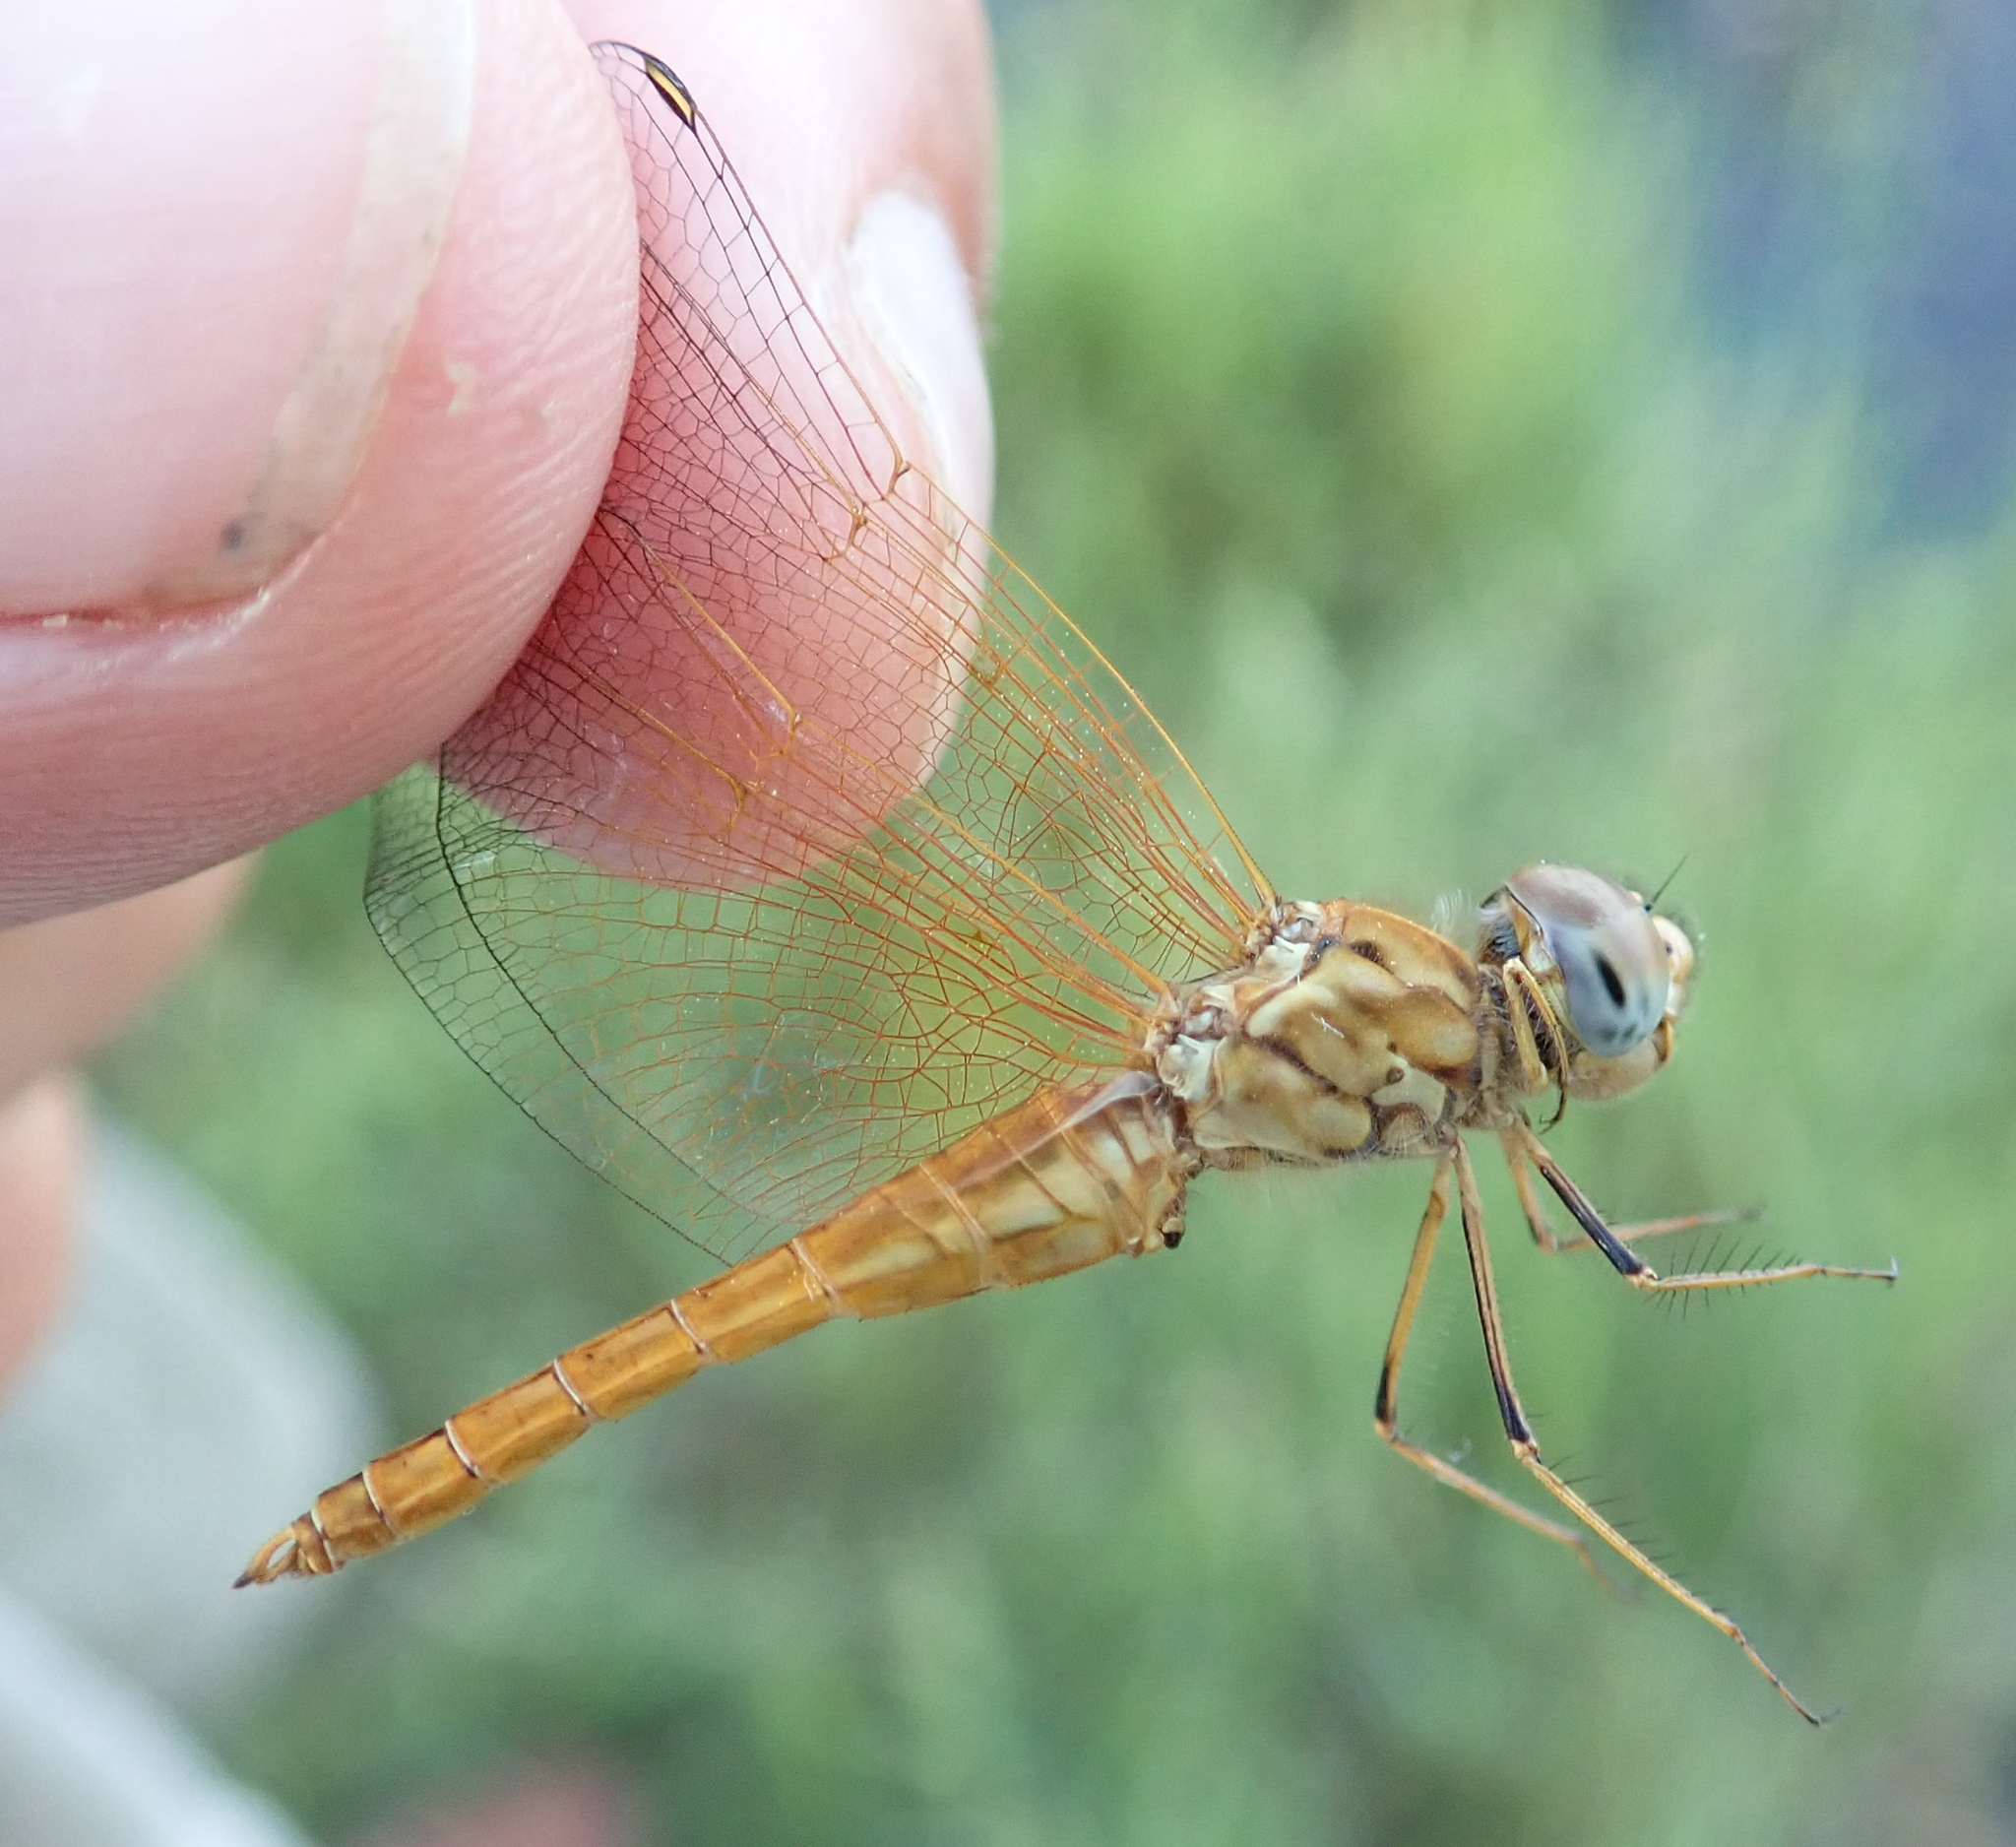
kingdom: Animalia
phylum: Arthropoda
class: Insecta
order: Odonata
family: Libellulidae
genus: Brachythemis
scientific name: Brachythemis lacustris
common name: Red groundling
